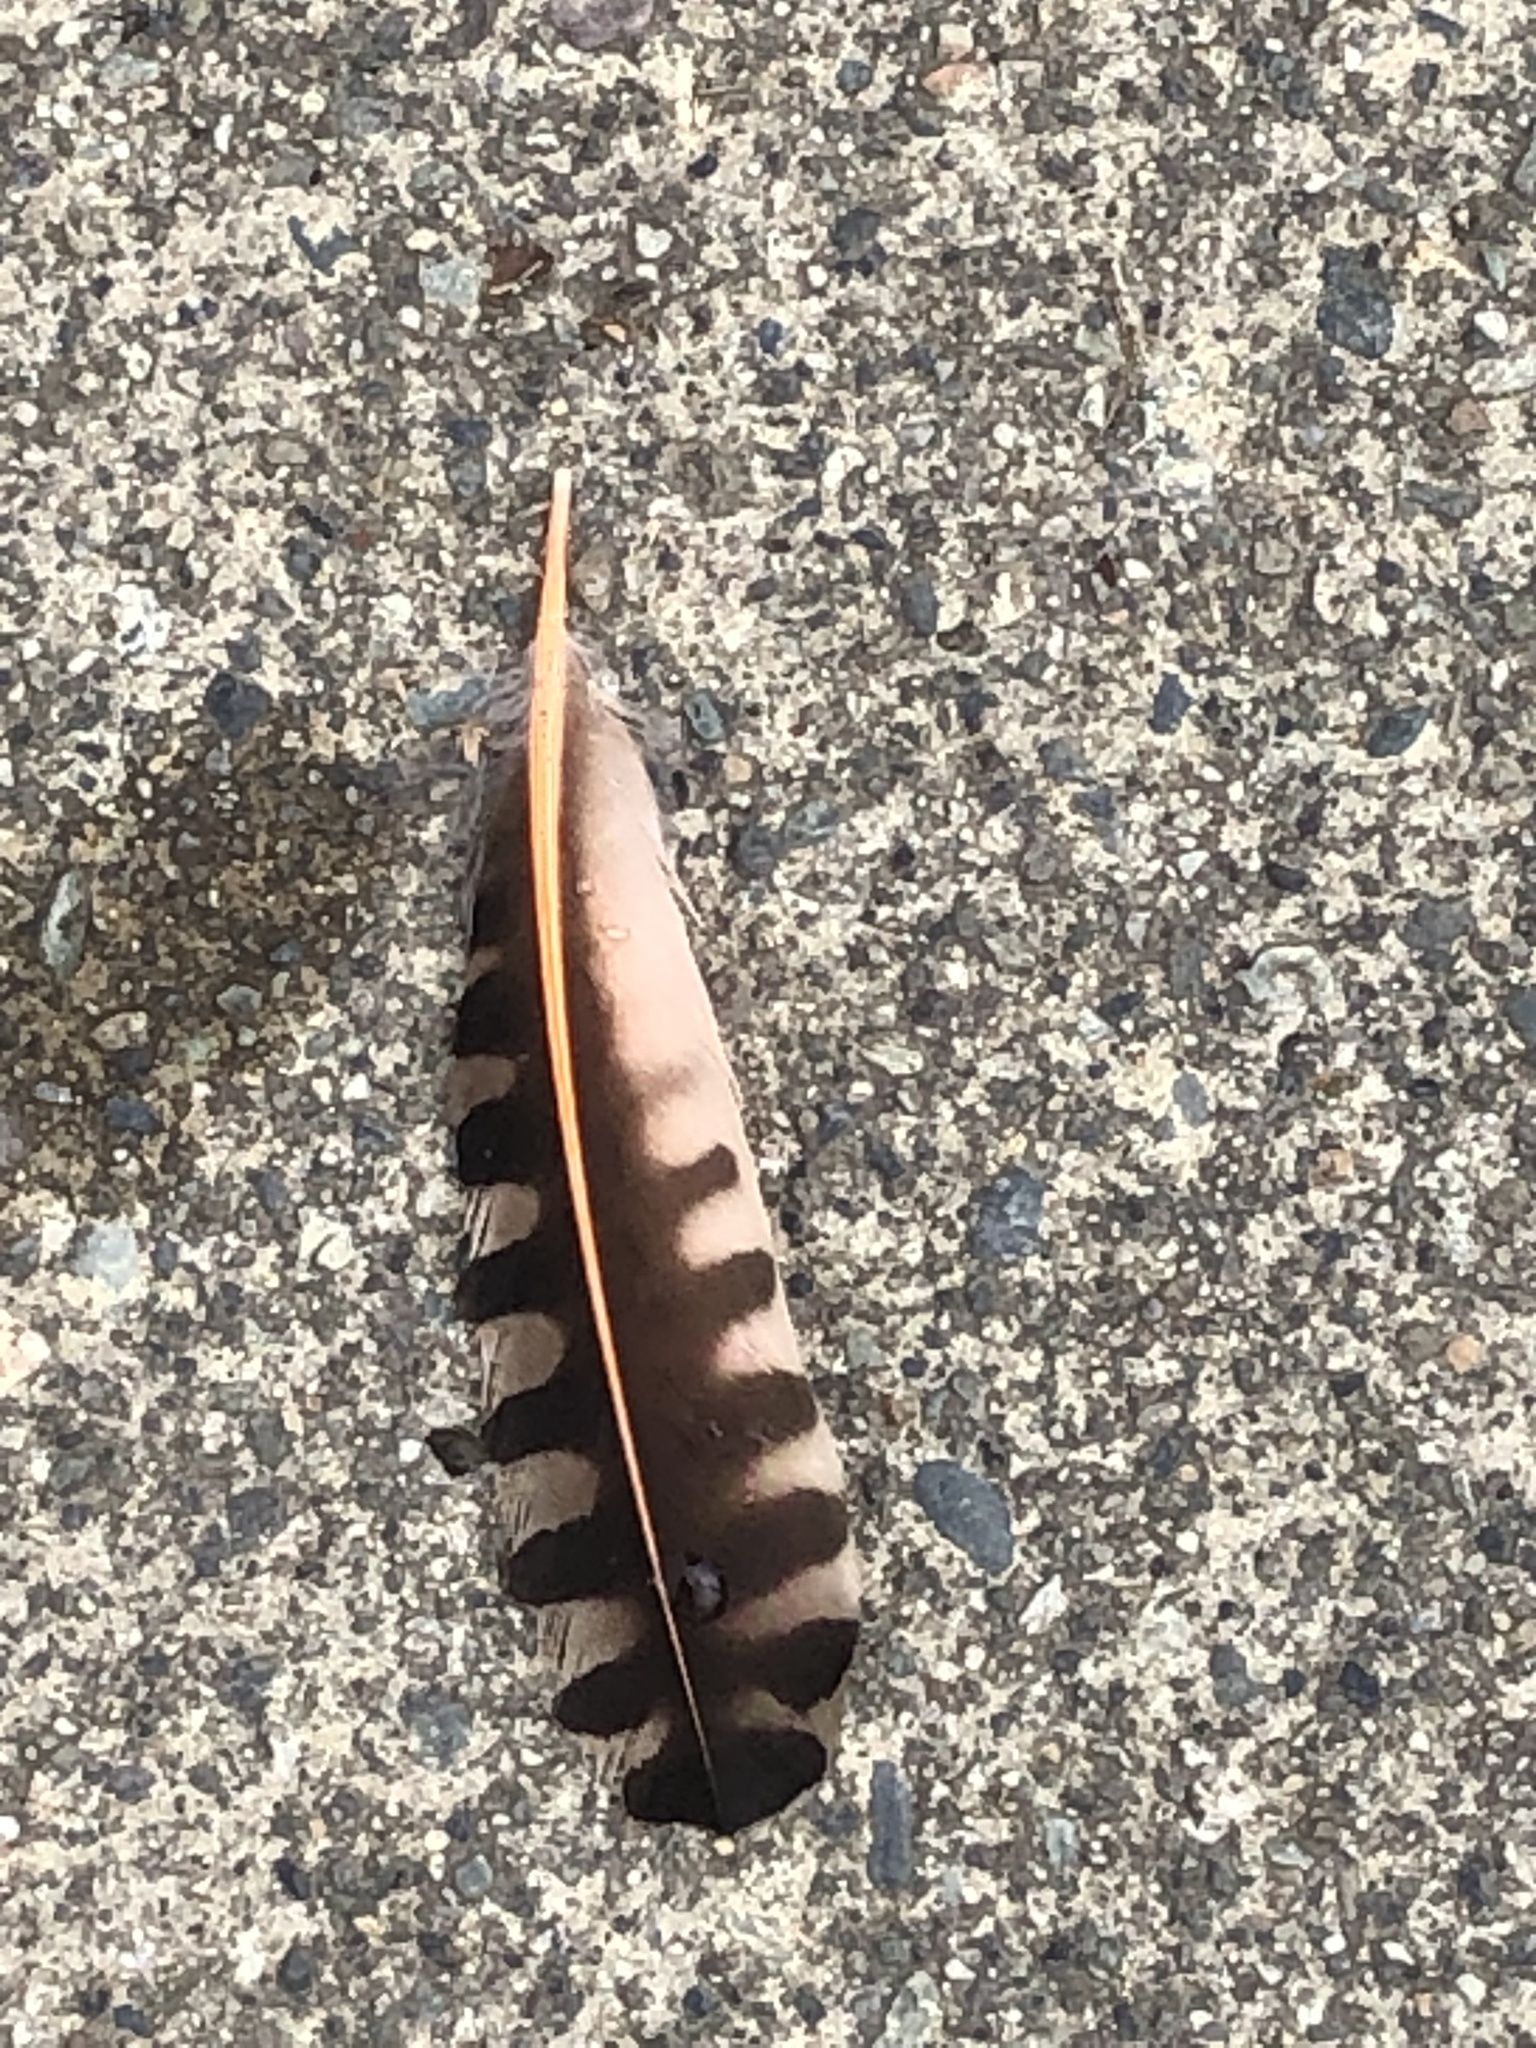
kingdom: Animalia
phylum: Chordata
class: Aves
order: Piciformes
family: Picidae
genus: Colaptes
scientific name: Colaptes auratus
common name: Northern flicker
